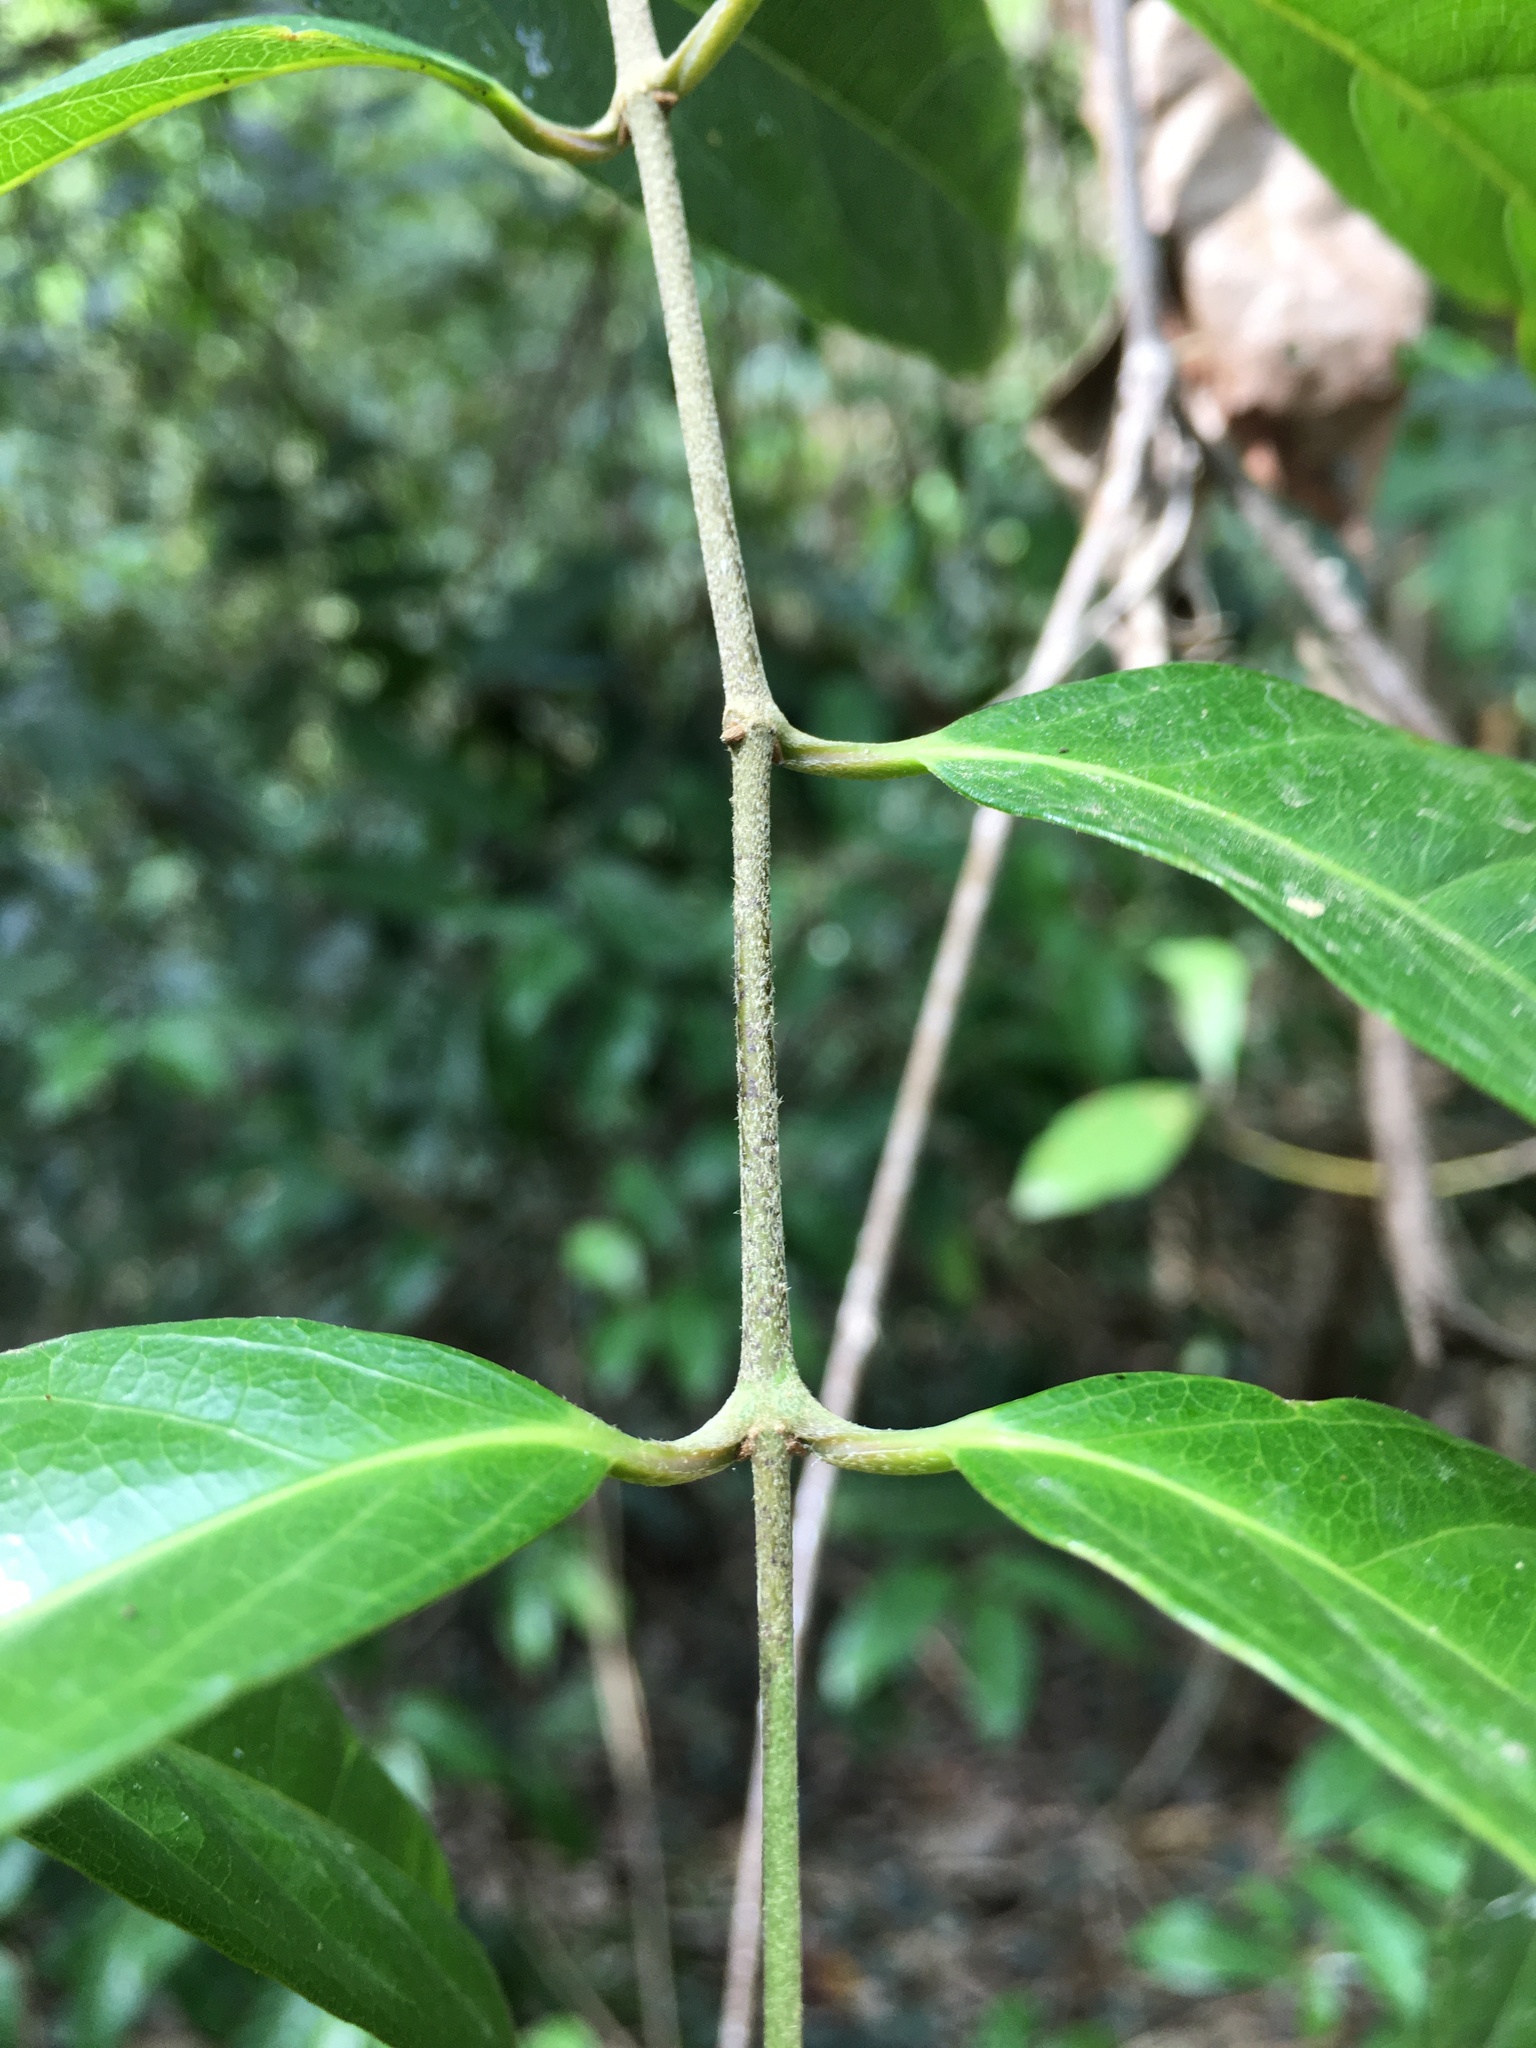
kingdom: Plantae
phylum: Tracheophyta
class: Magnoliopsida
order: Malpighiales
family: Malpighiaceae
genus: Hiptage
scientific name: Hiptage benghalensis
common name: Hiptage
